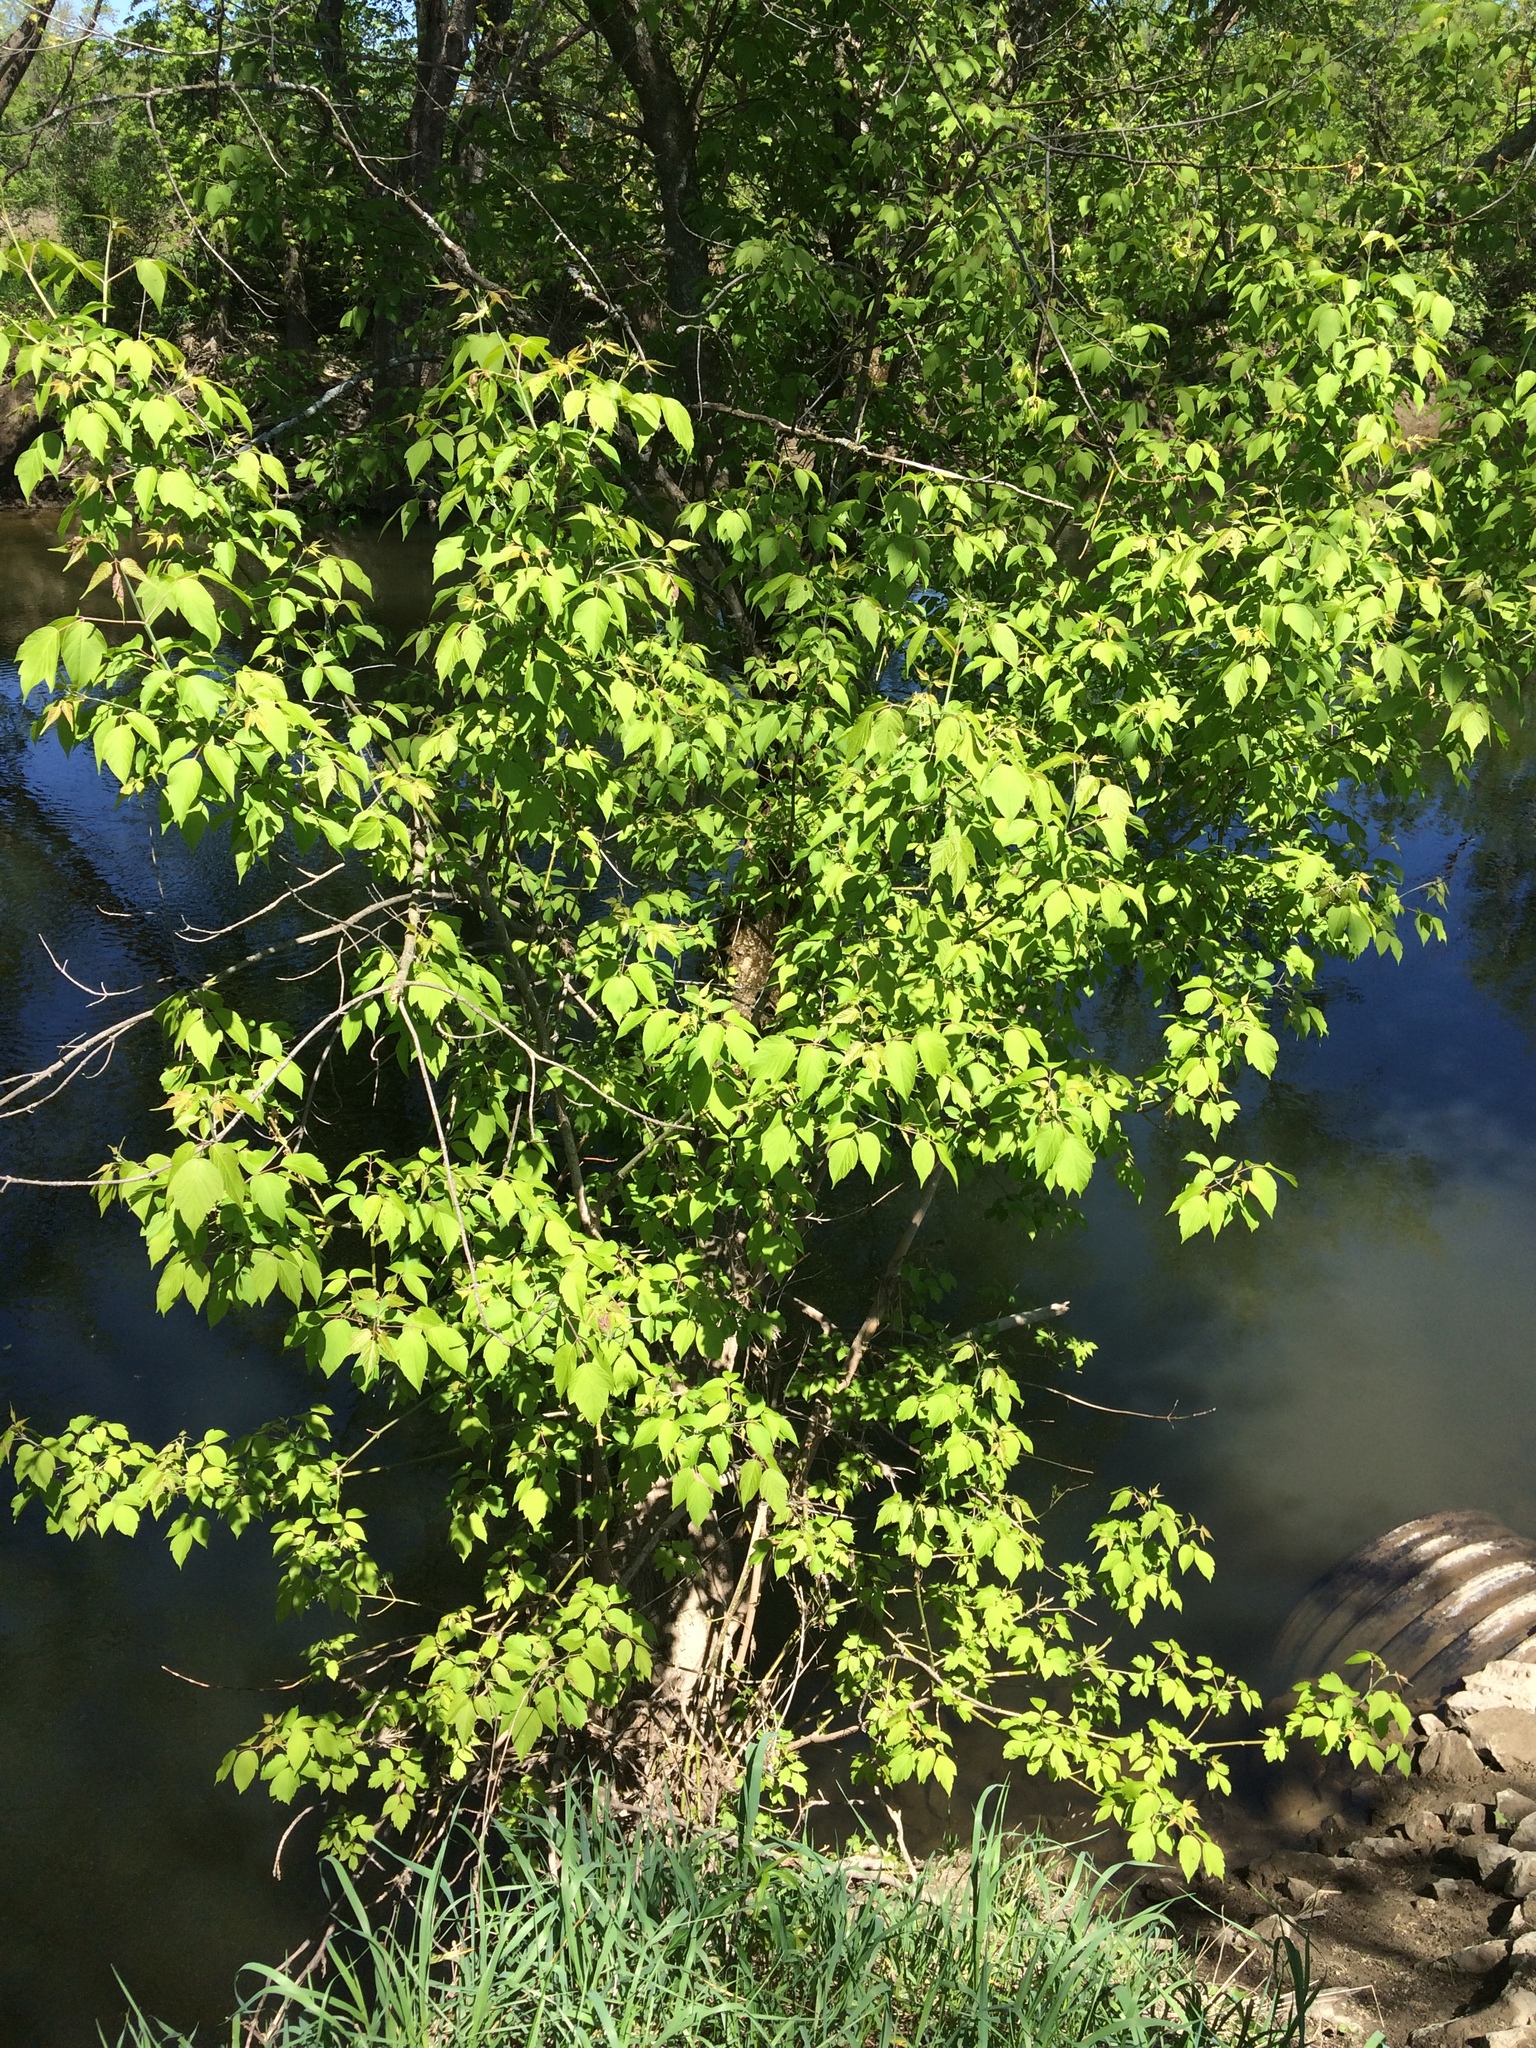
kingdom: Plantae
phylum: Tracheophyta
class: Magnoliopsida
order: Sapindales
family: Sapindaceae
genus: Acer
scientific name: Acer negundo
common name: Ashleaf maple
